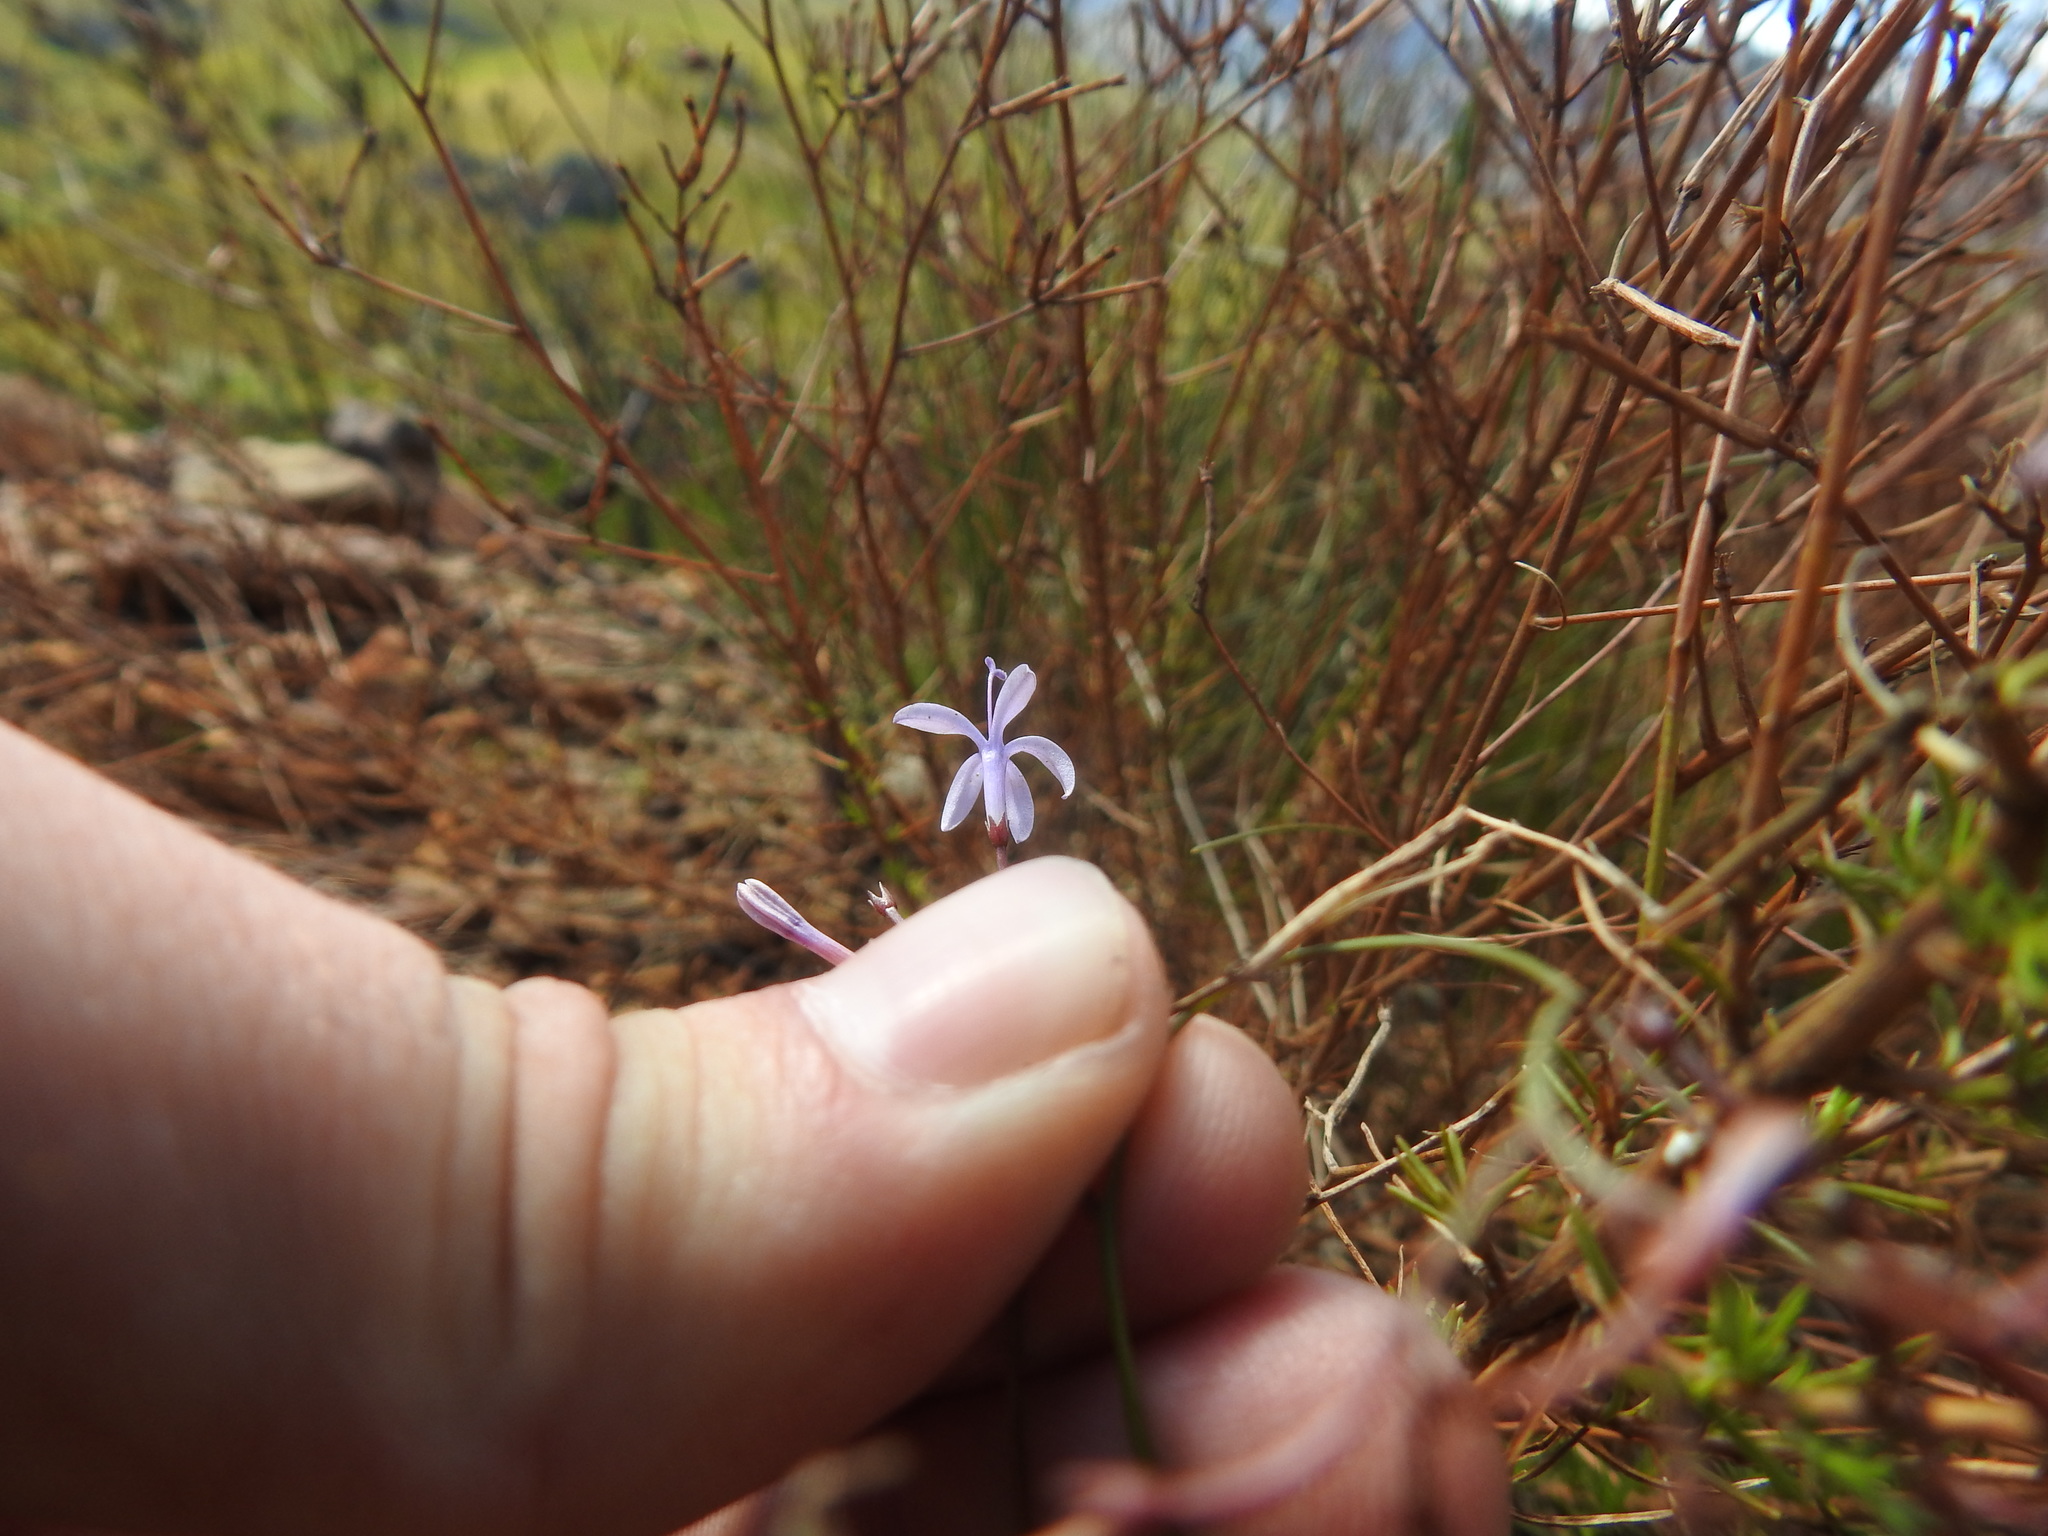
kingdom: Plantae
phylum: Tracheophyta
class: Magnoliopsida
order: Asterales
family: Campanulaceae
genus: Prismatocarpus
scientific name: Prismatocarpus diffusus
